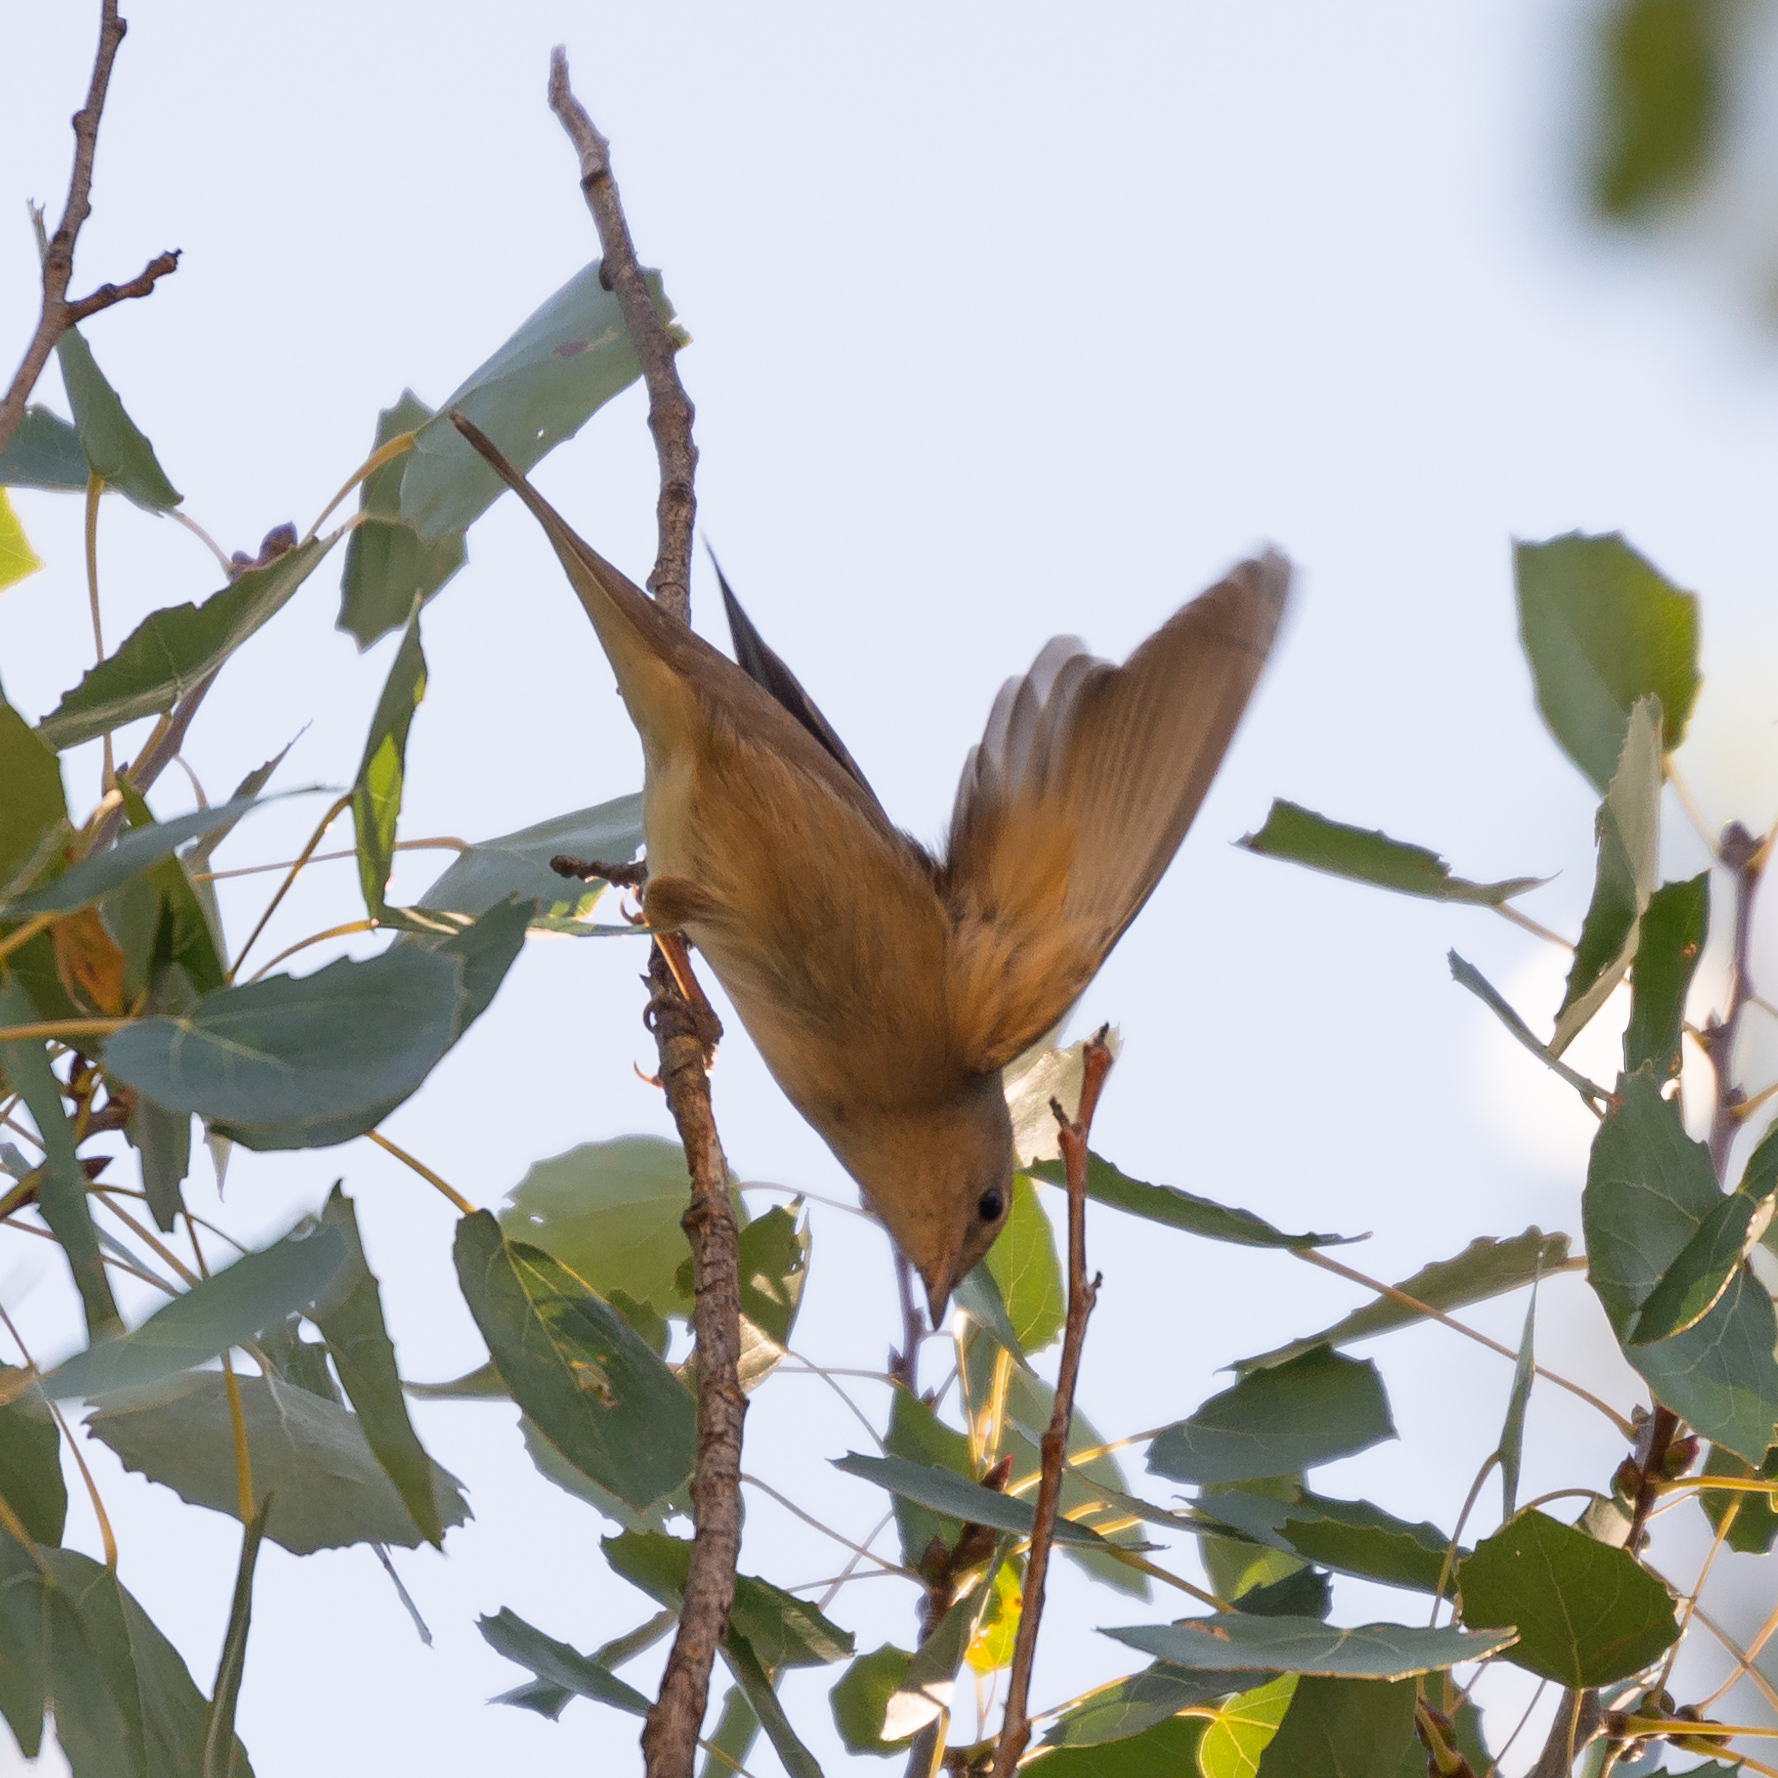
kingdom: Animalia
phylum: Chordata
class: Aves
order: Passeriformes
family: Sylviidae
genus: Sylvia
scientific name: Sylvia borin
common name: Garden warbler
